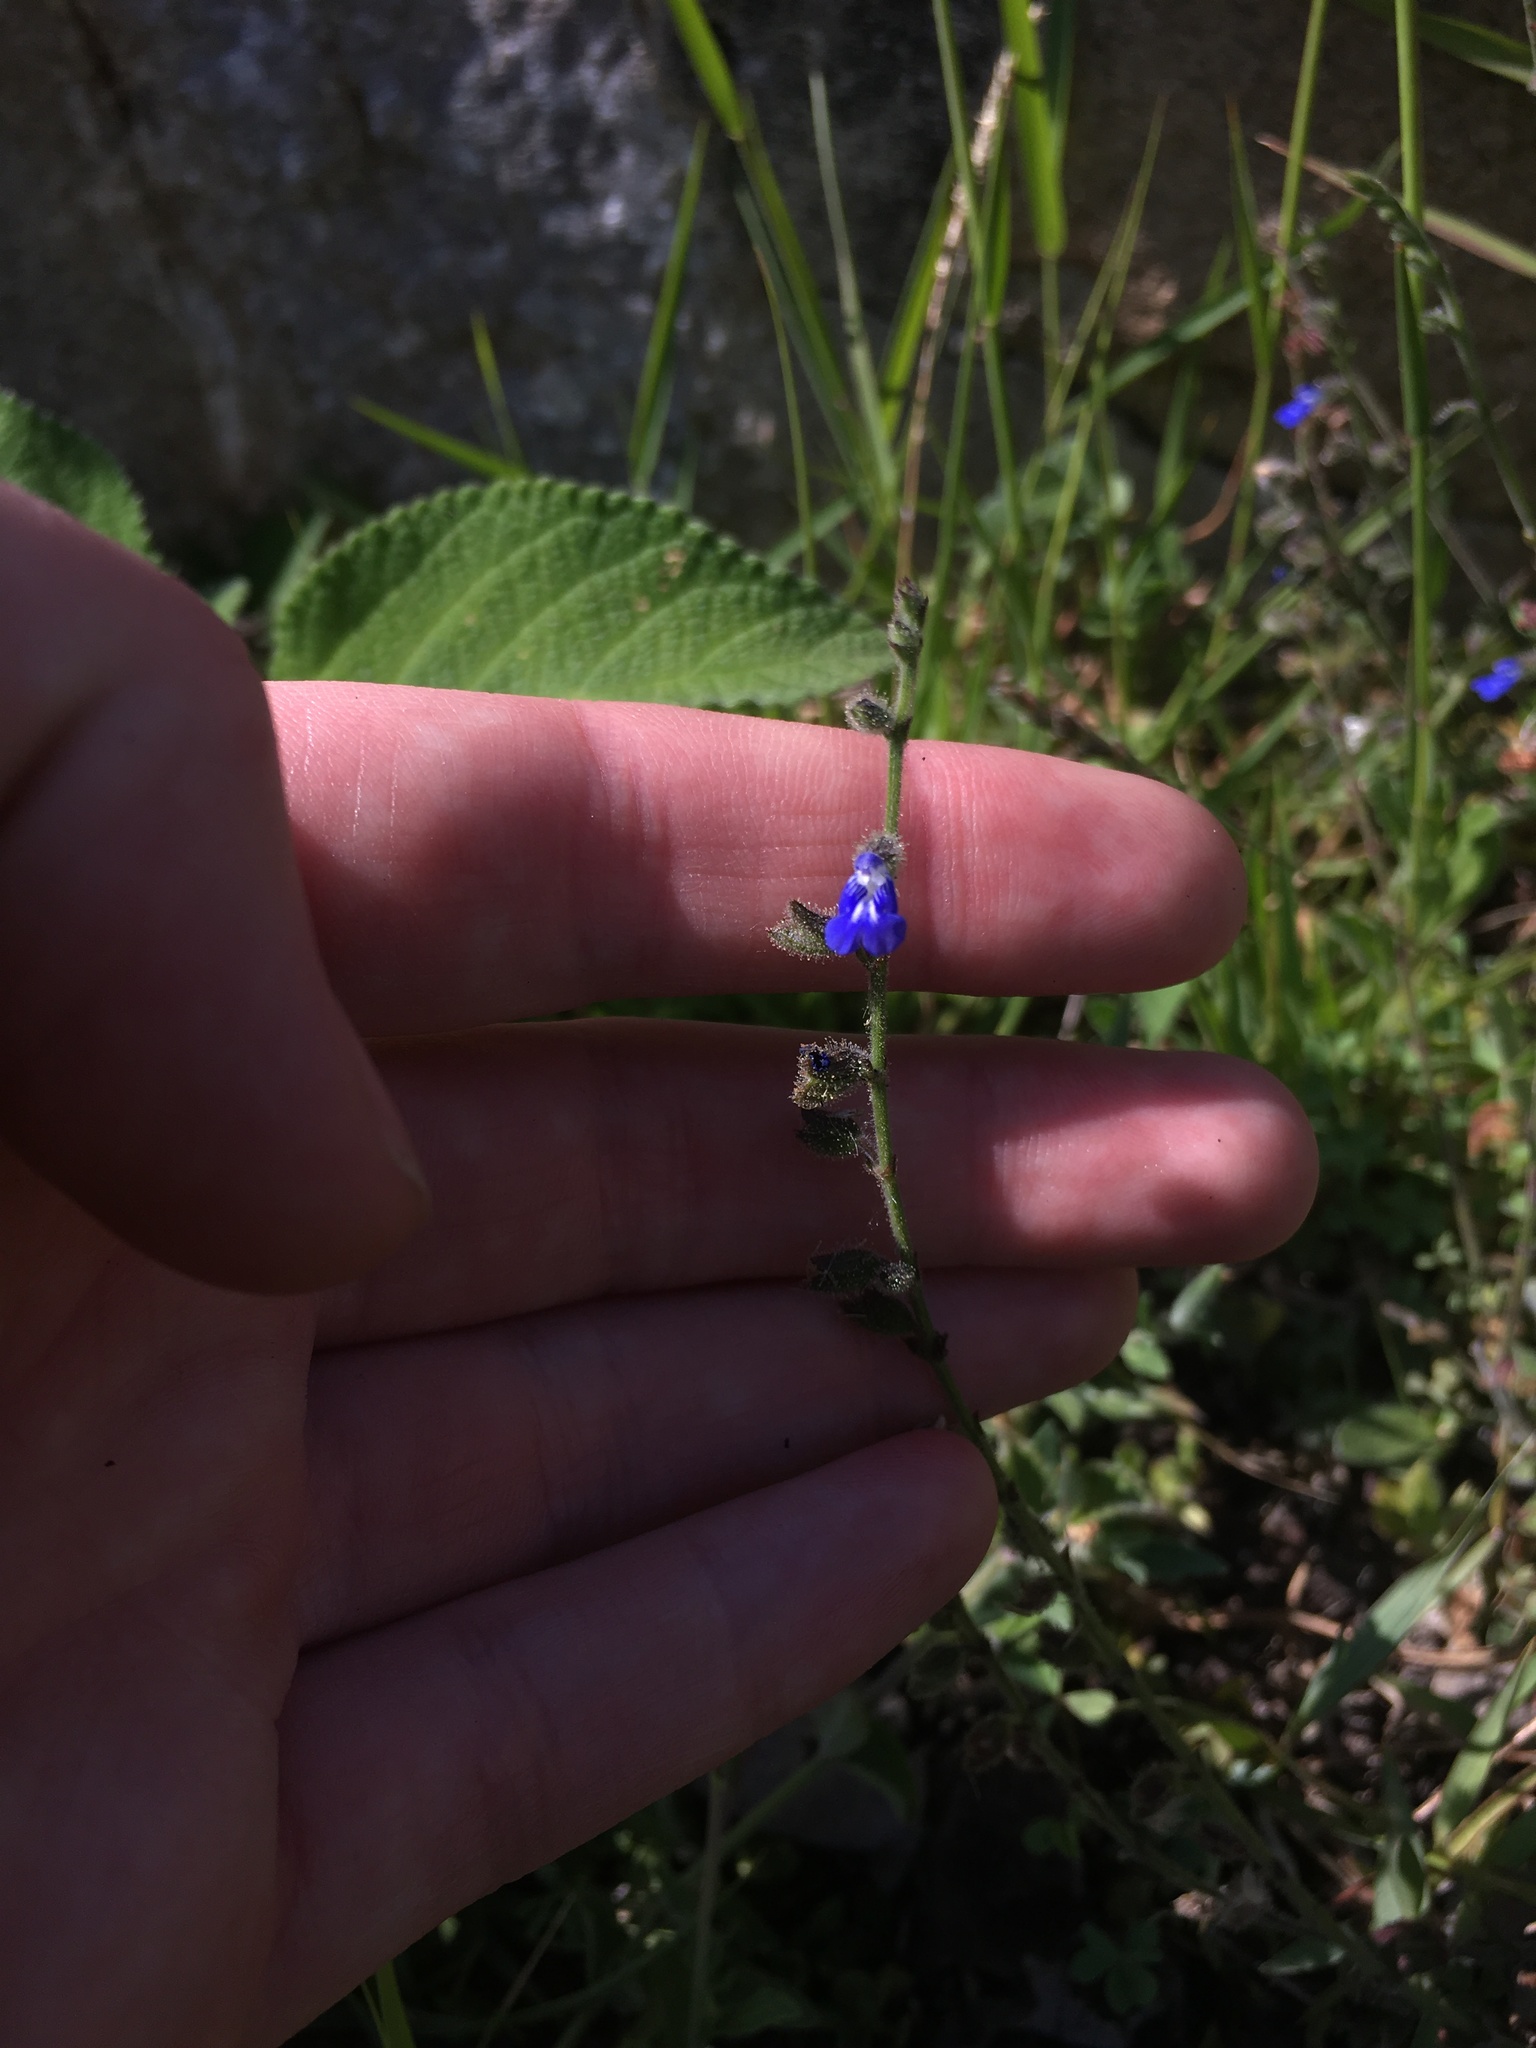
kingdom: Plantae
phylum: Tracheophyta
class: Magnoliopsida
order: Lamiales
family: Lamiaceae
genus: Salvia
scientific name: Salvia misella
